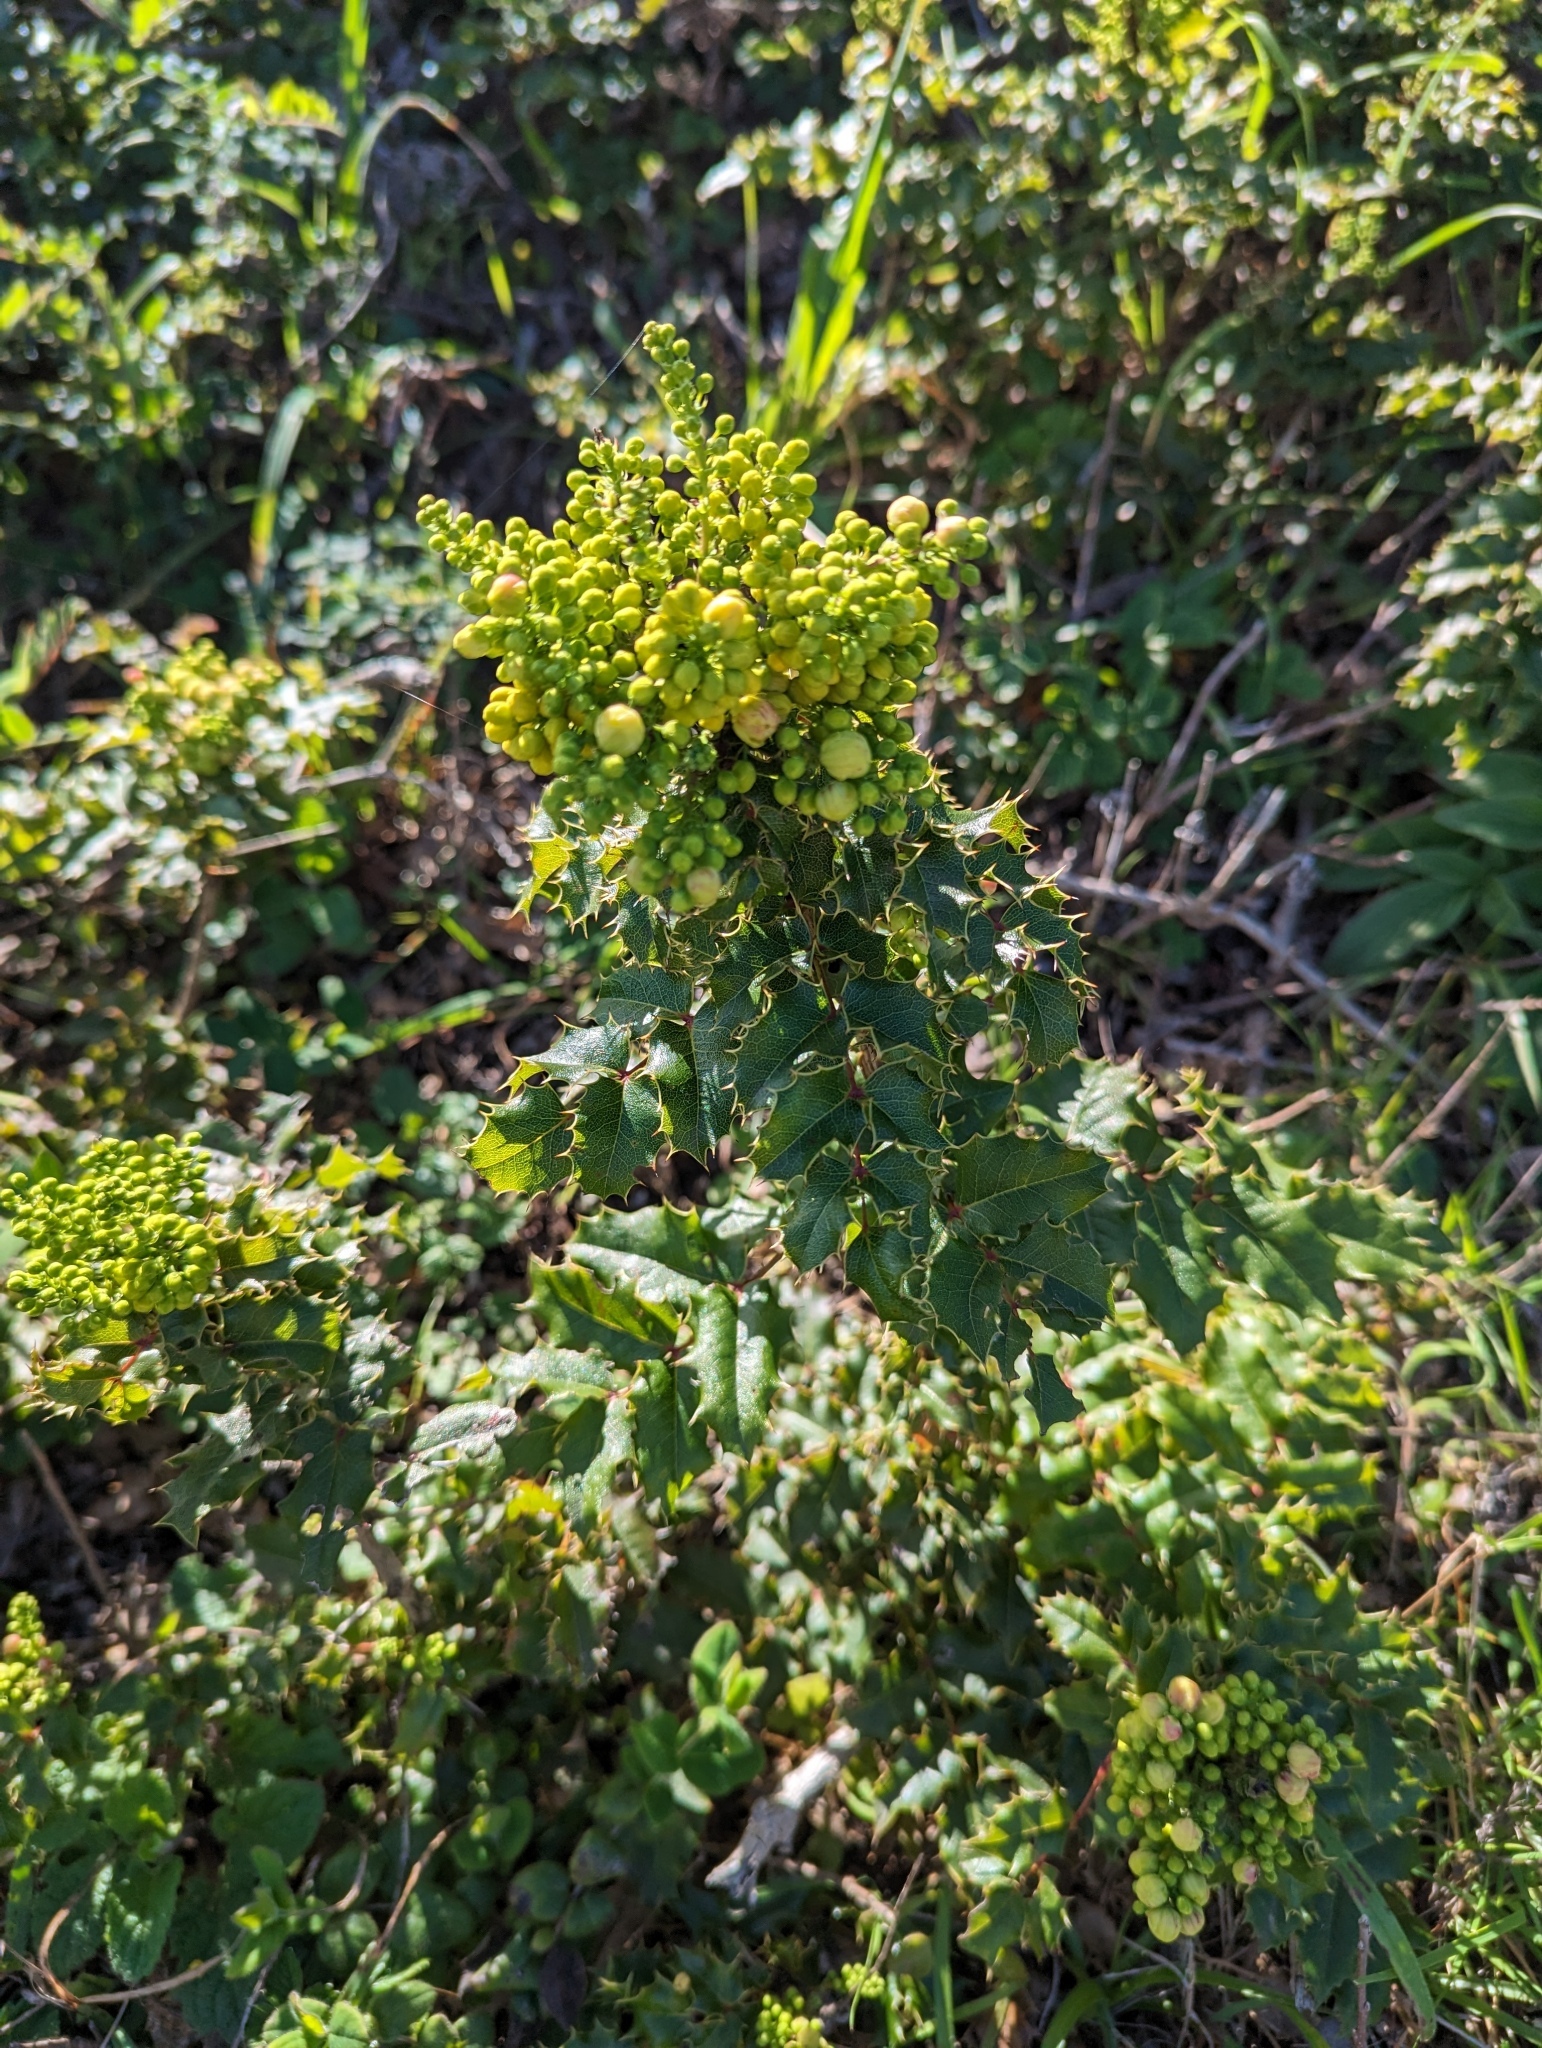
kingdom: Plantae
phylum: Tracheophyta
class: Magnoliopsida
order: Ranunculales
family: Berberidaceae
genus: Mahonia
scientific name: Mahonia
